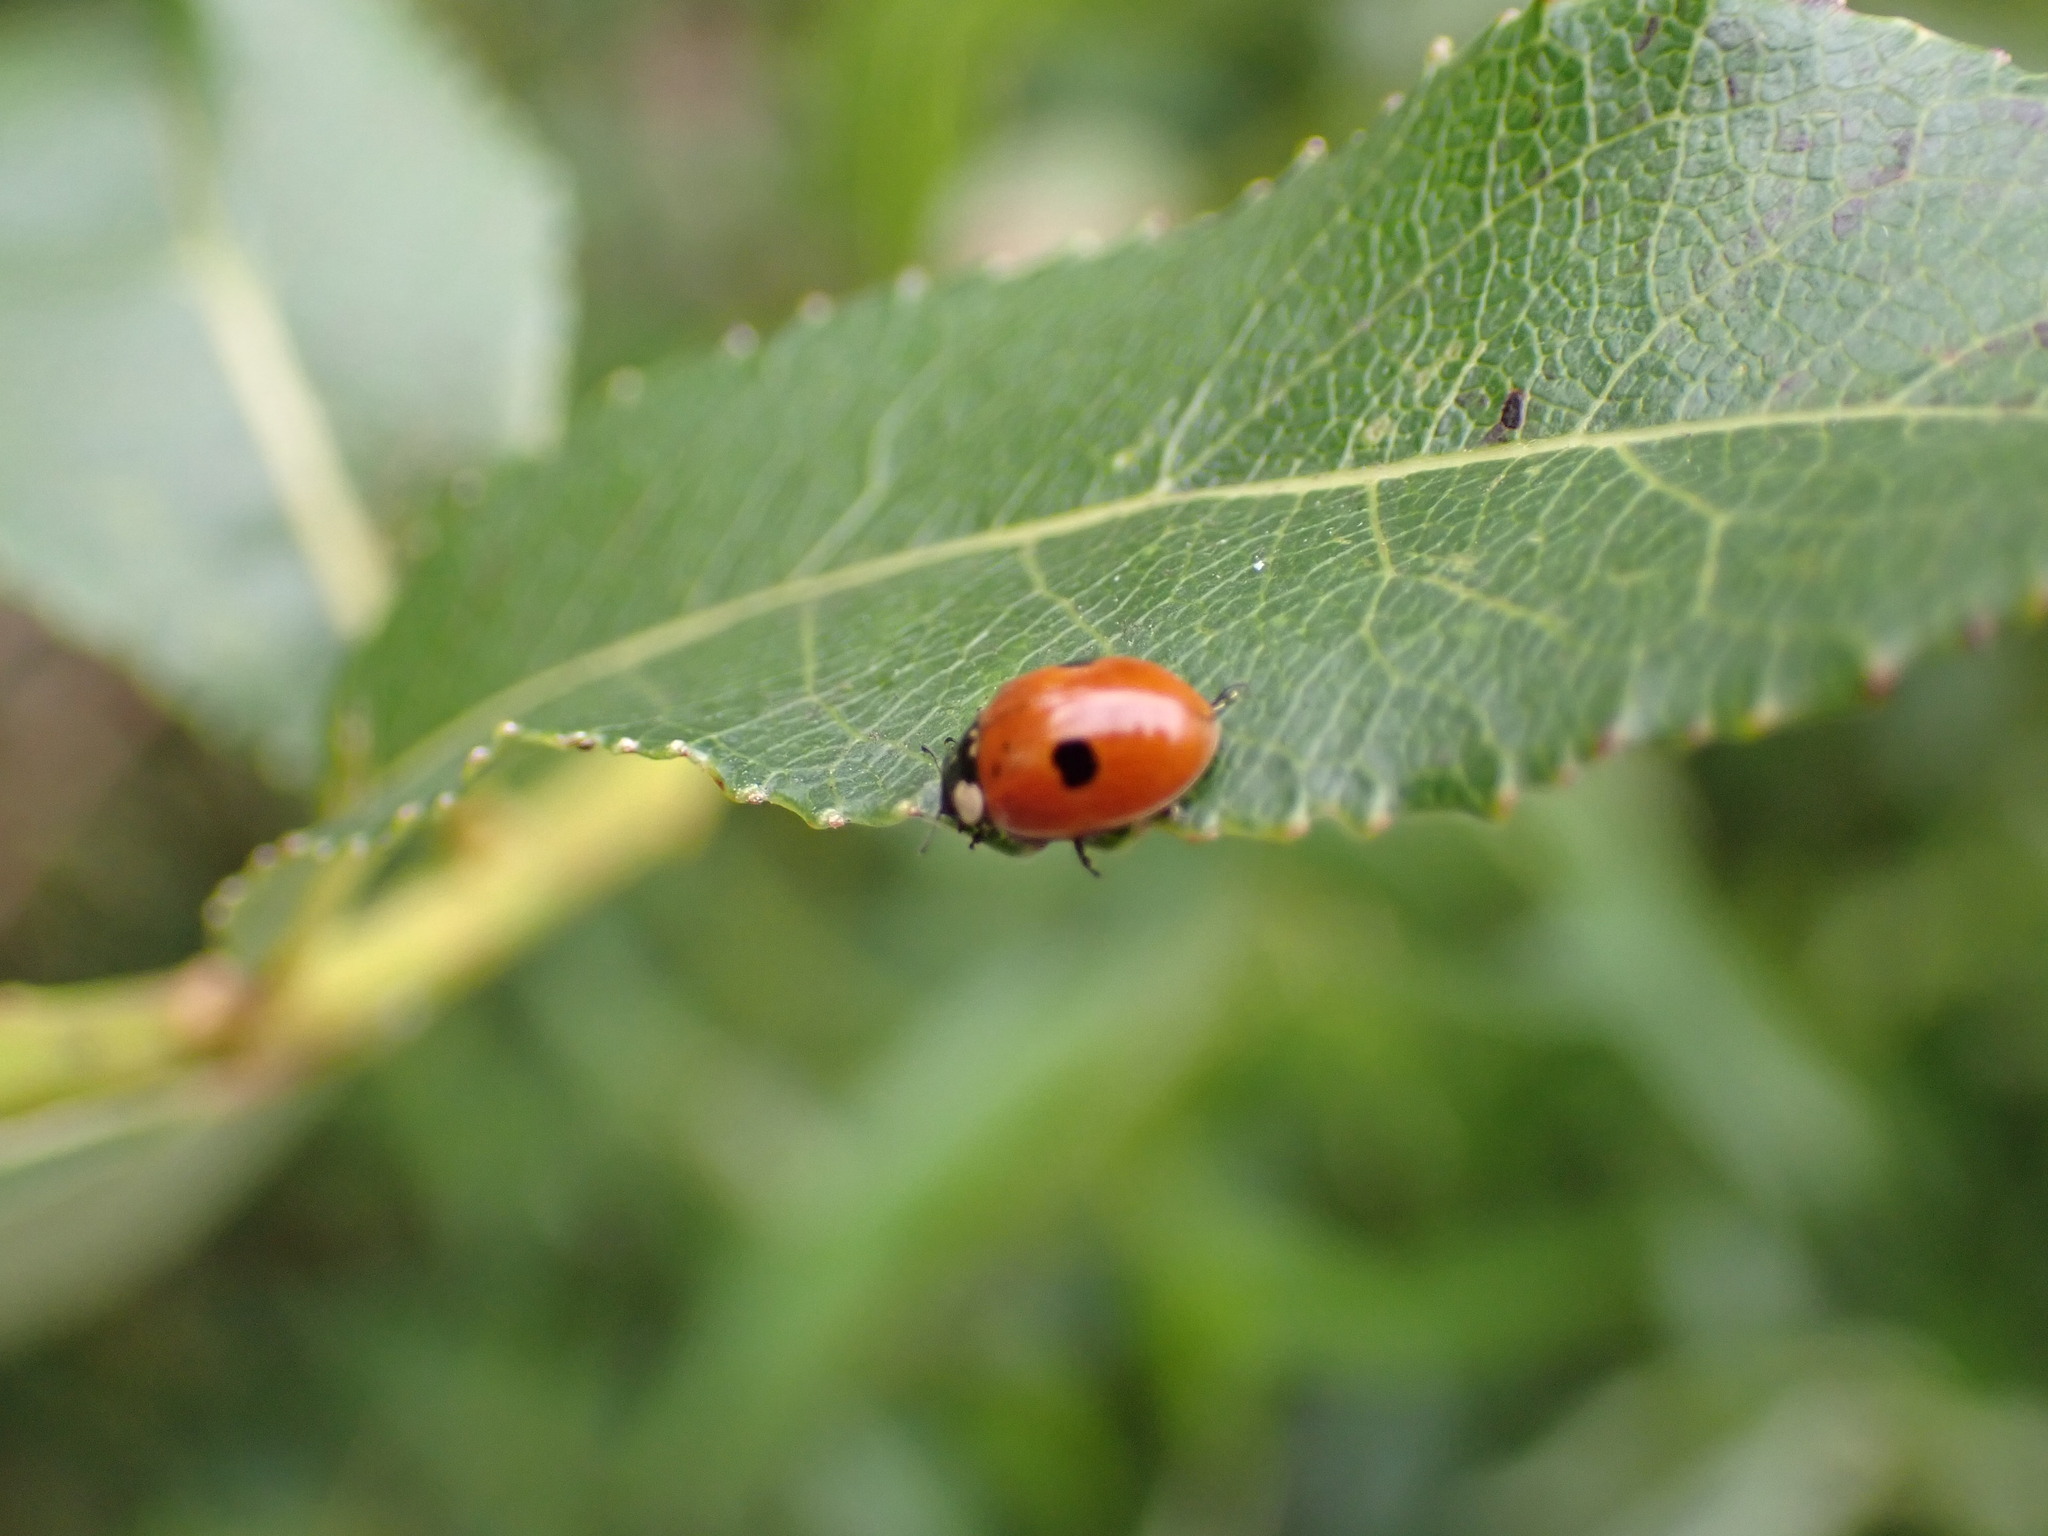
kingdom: Animalia
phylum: Arthropoda
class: Insecta
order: Coleoptera
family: Coccinellidae
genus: Adalia
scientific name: Adalia bipunctata
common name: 2-spot ladybird
